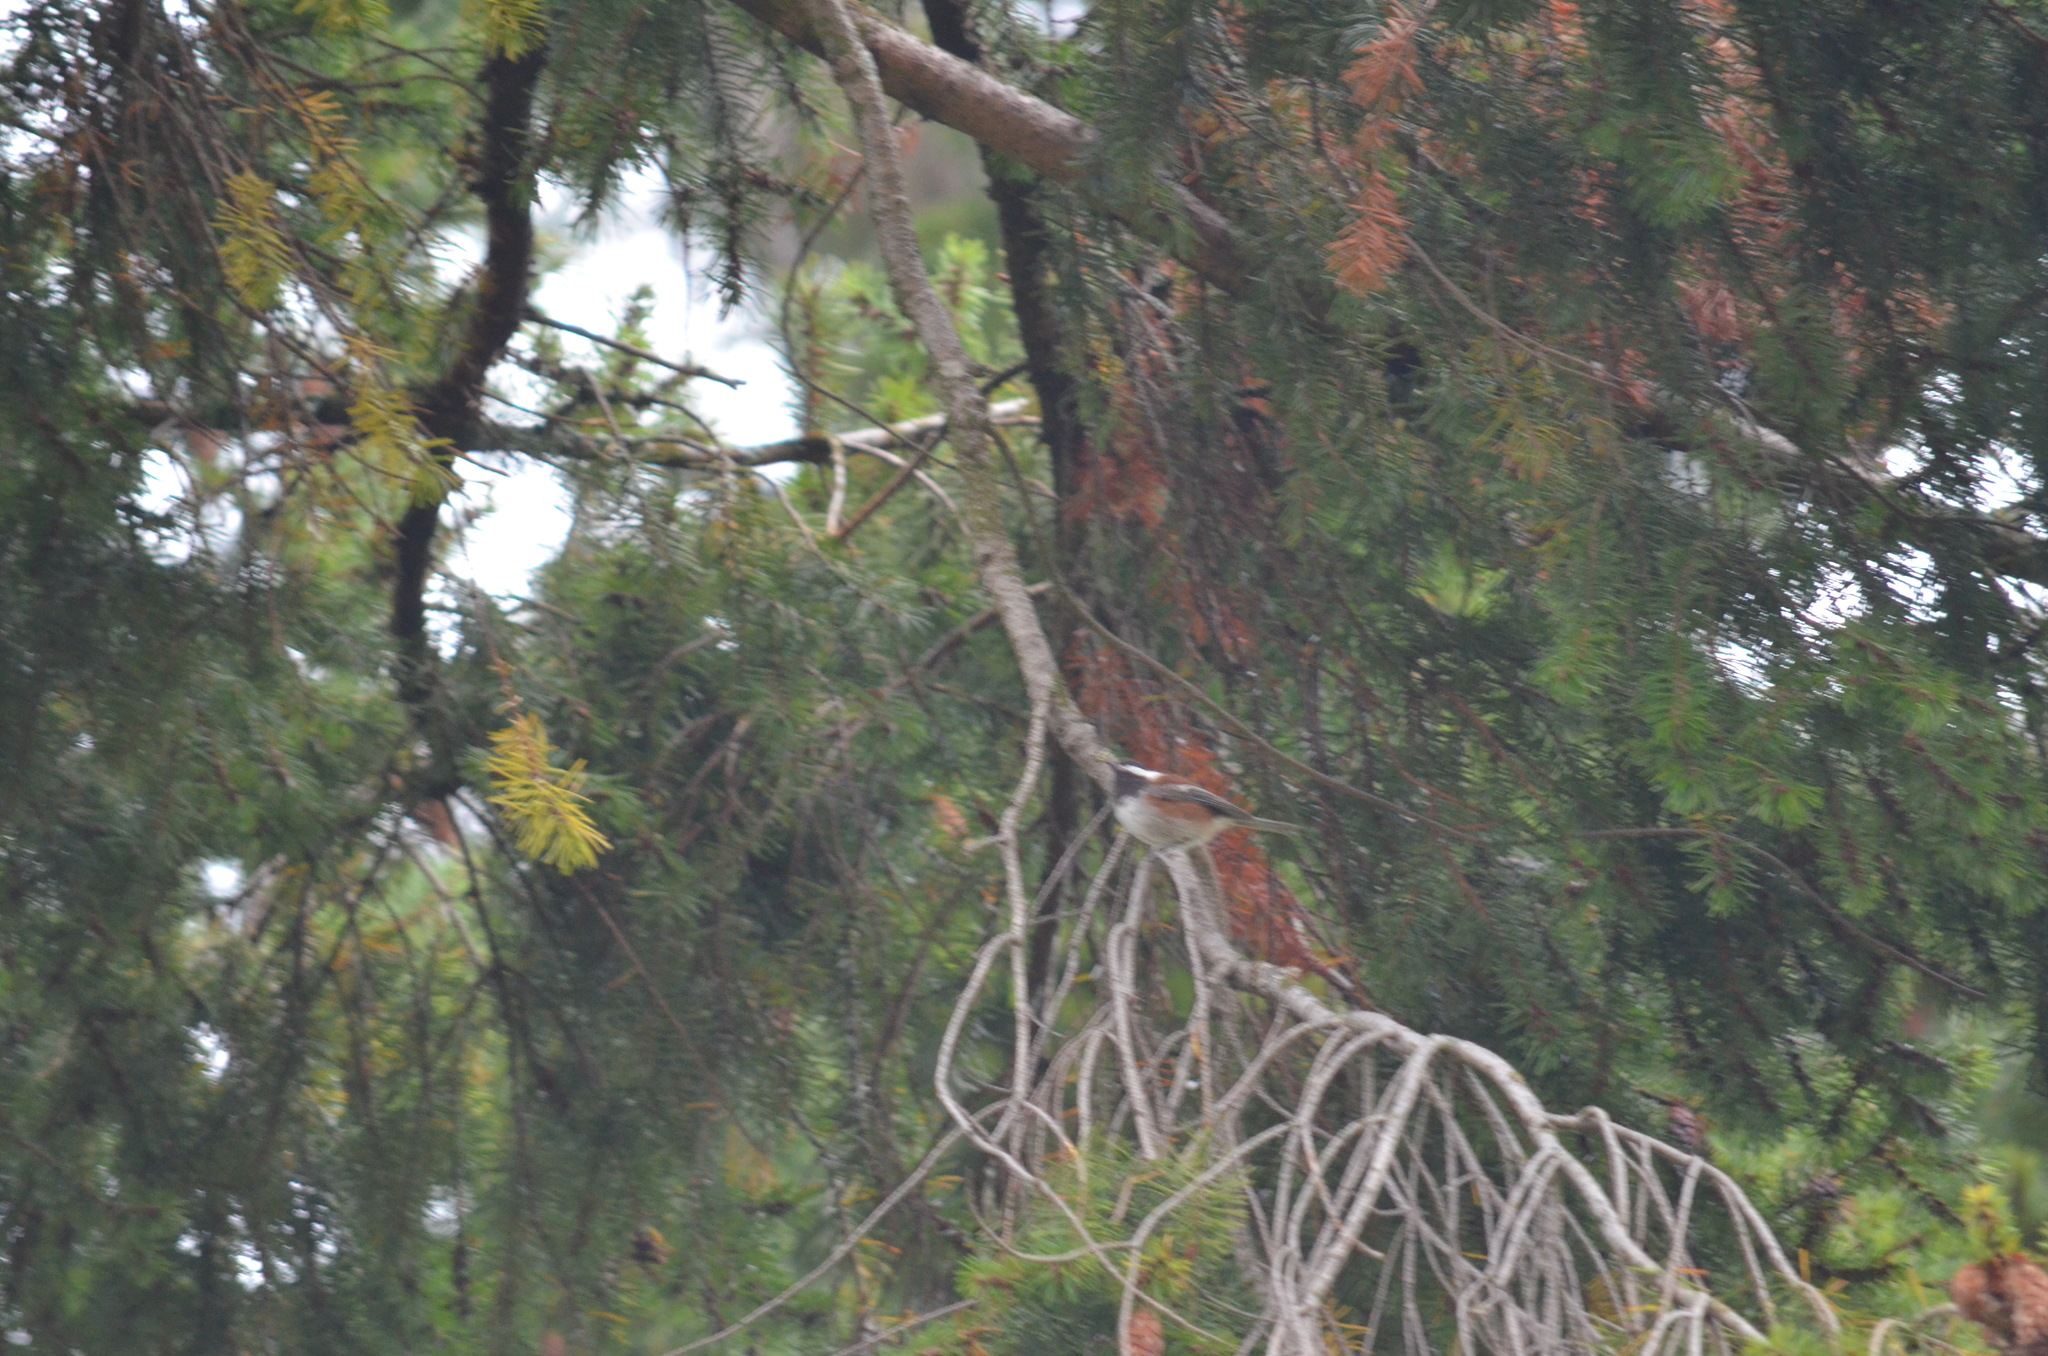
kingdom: Animalia
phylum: Chordata
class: Aves
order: Passeriformes
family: Paridae
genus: Poecile
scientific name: Poecile rufescens
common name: Chestnut-backed chickadee
